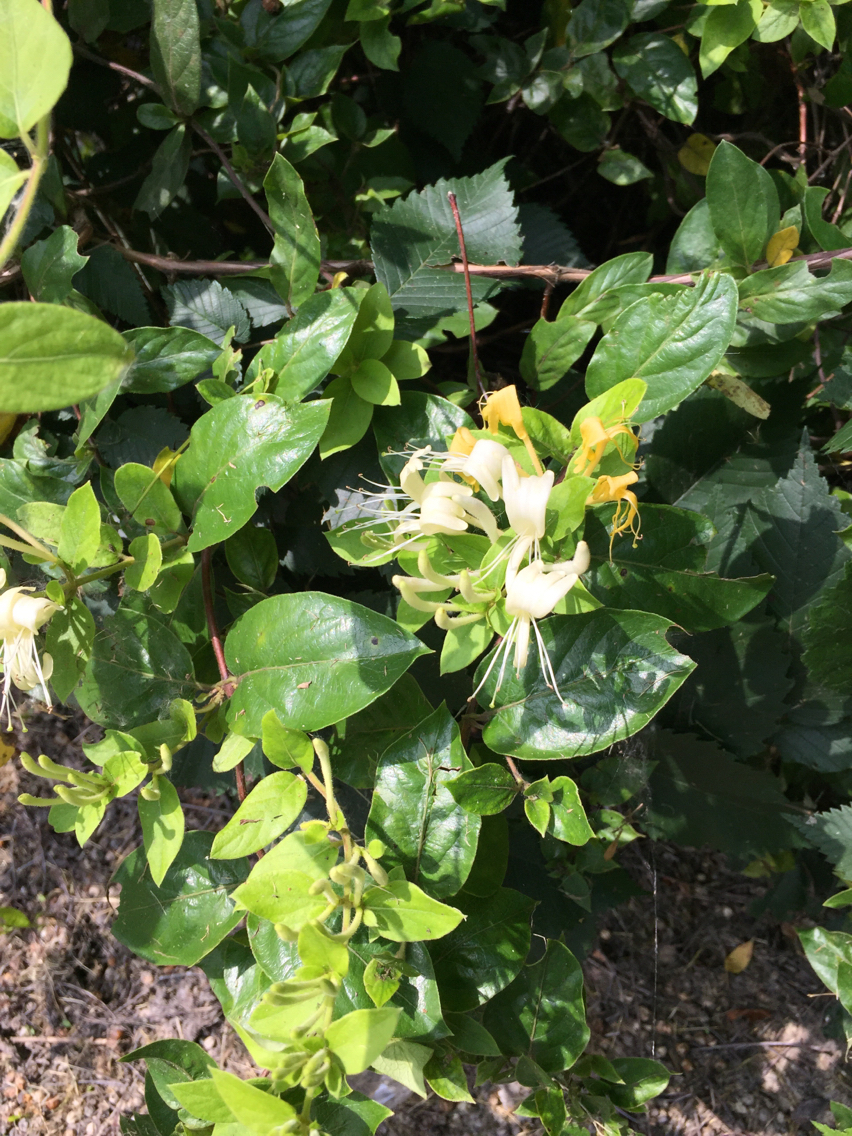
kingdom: Plantae
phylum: Tracheophyta
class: Magnoliopsida
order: Dipsacales
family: Caprifoliaceae
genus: Lonicera
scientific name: Lonicera japonica
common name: Japanese honeysuckle
